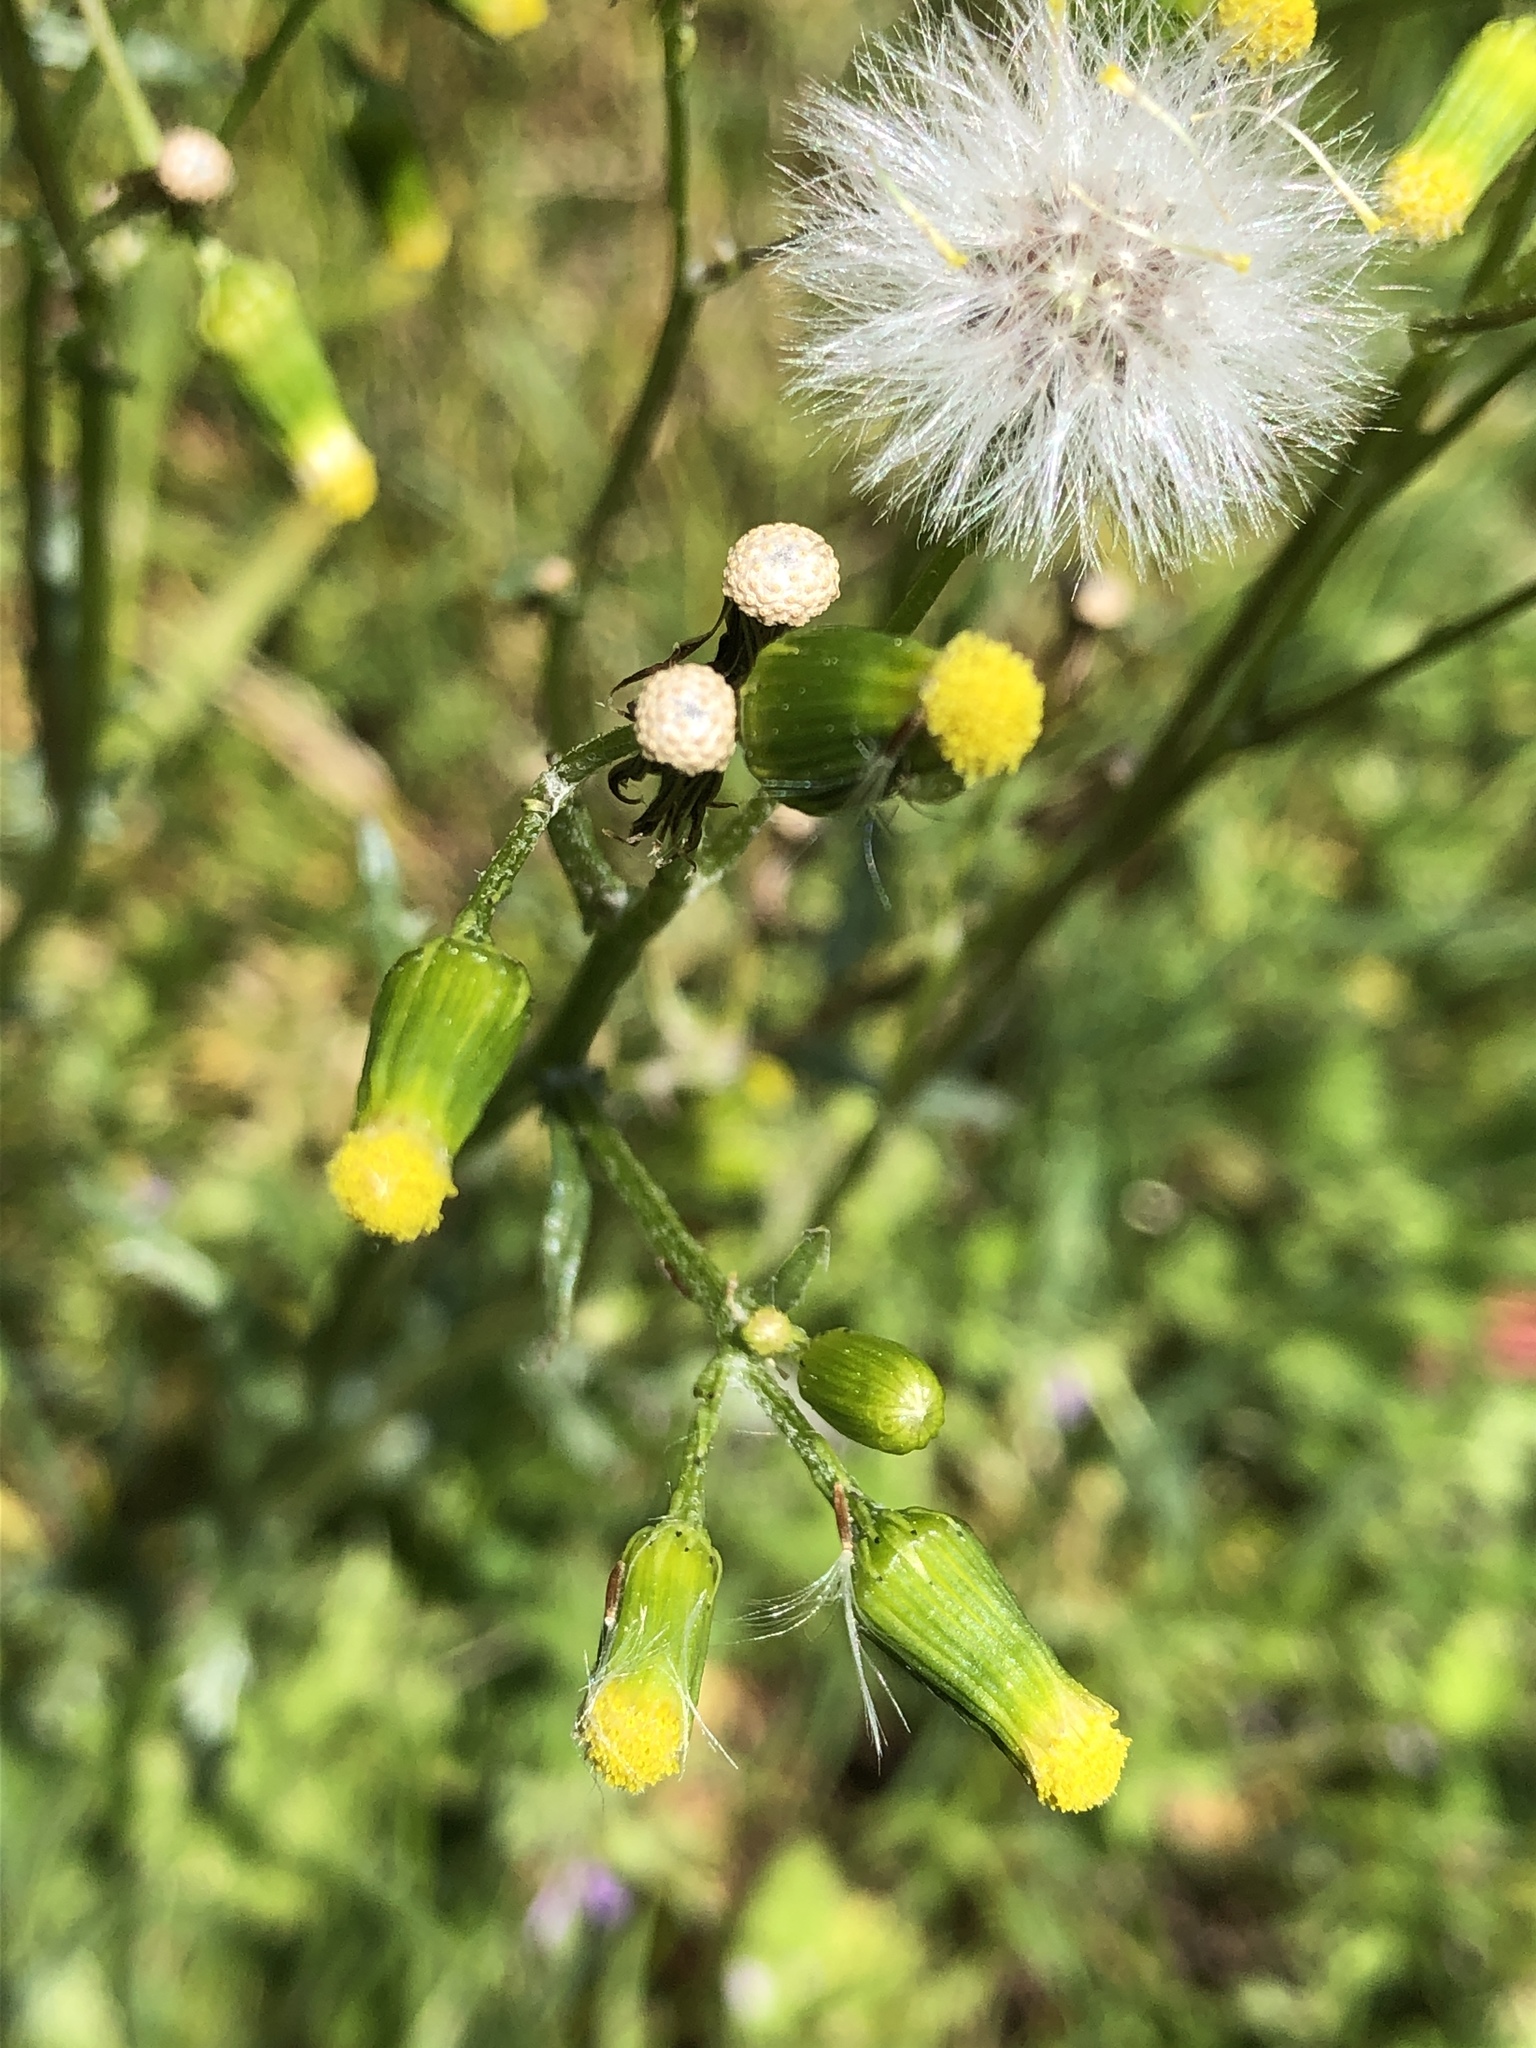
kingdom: Plantae
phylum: Tracheophyta
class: Magnoliopsida
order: Asterales
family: Asteraceae
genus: Senecio
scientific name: Senecio vulgaris
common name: Old-man-in-the-spring
